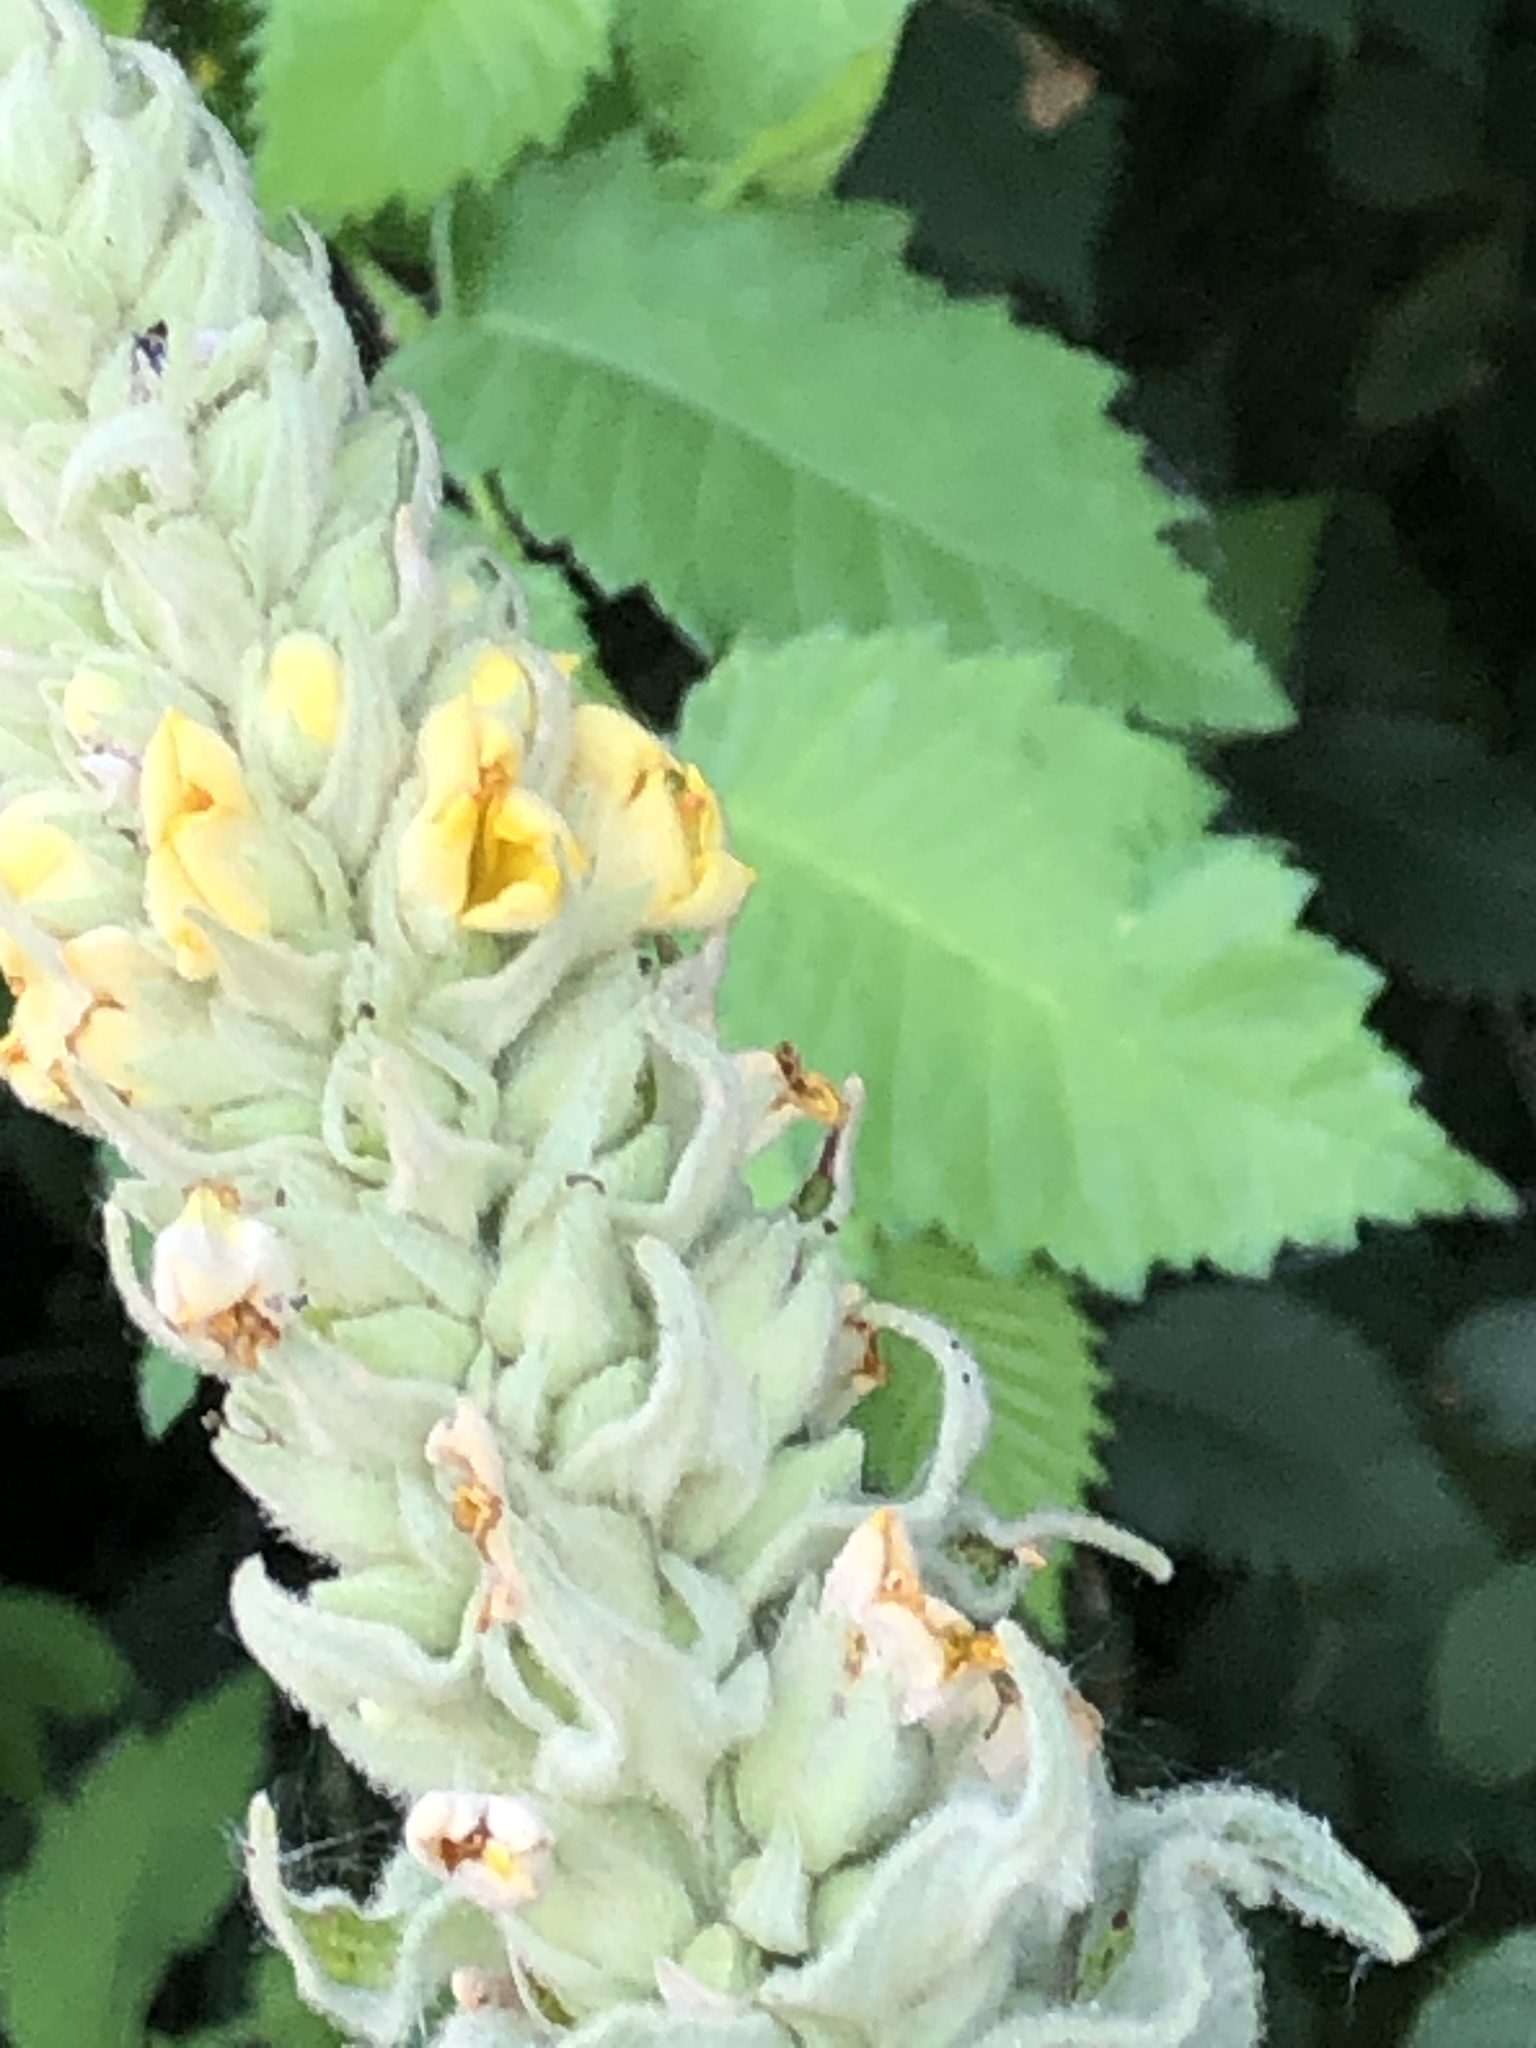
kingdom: Plantae
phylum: Tracheophyta
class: Magnoliopsida
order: Lamiales
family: Scrophulariaceae
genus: Verbascum
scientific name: Verbascum thapsus
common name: Common mullein
